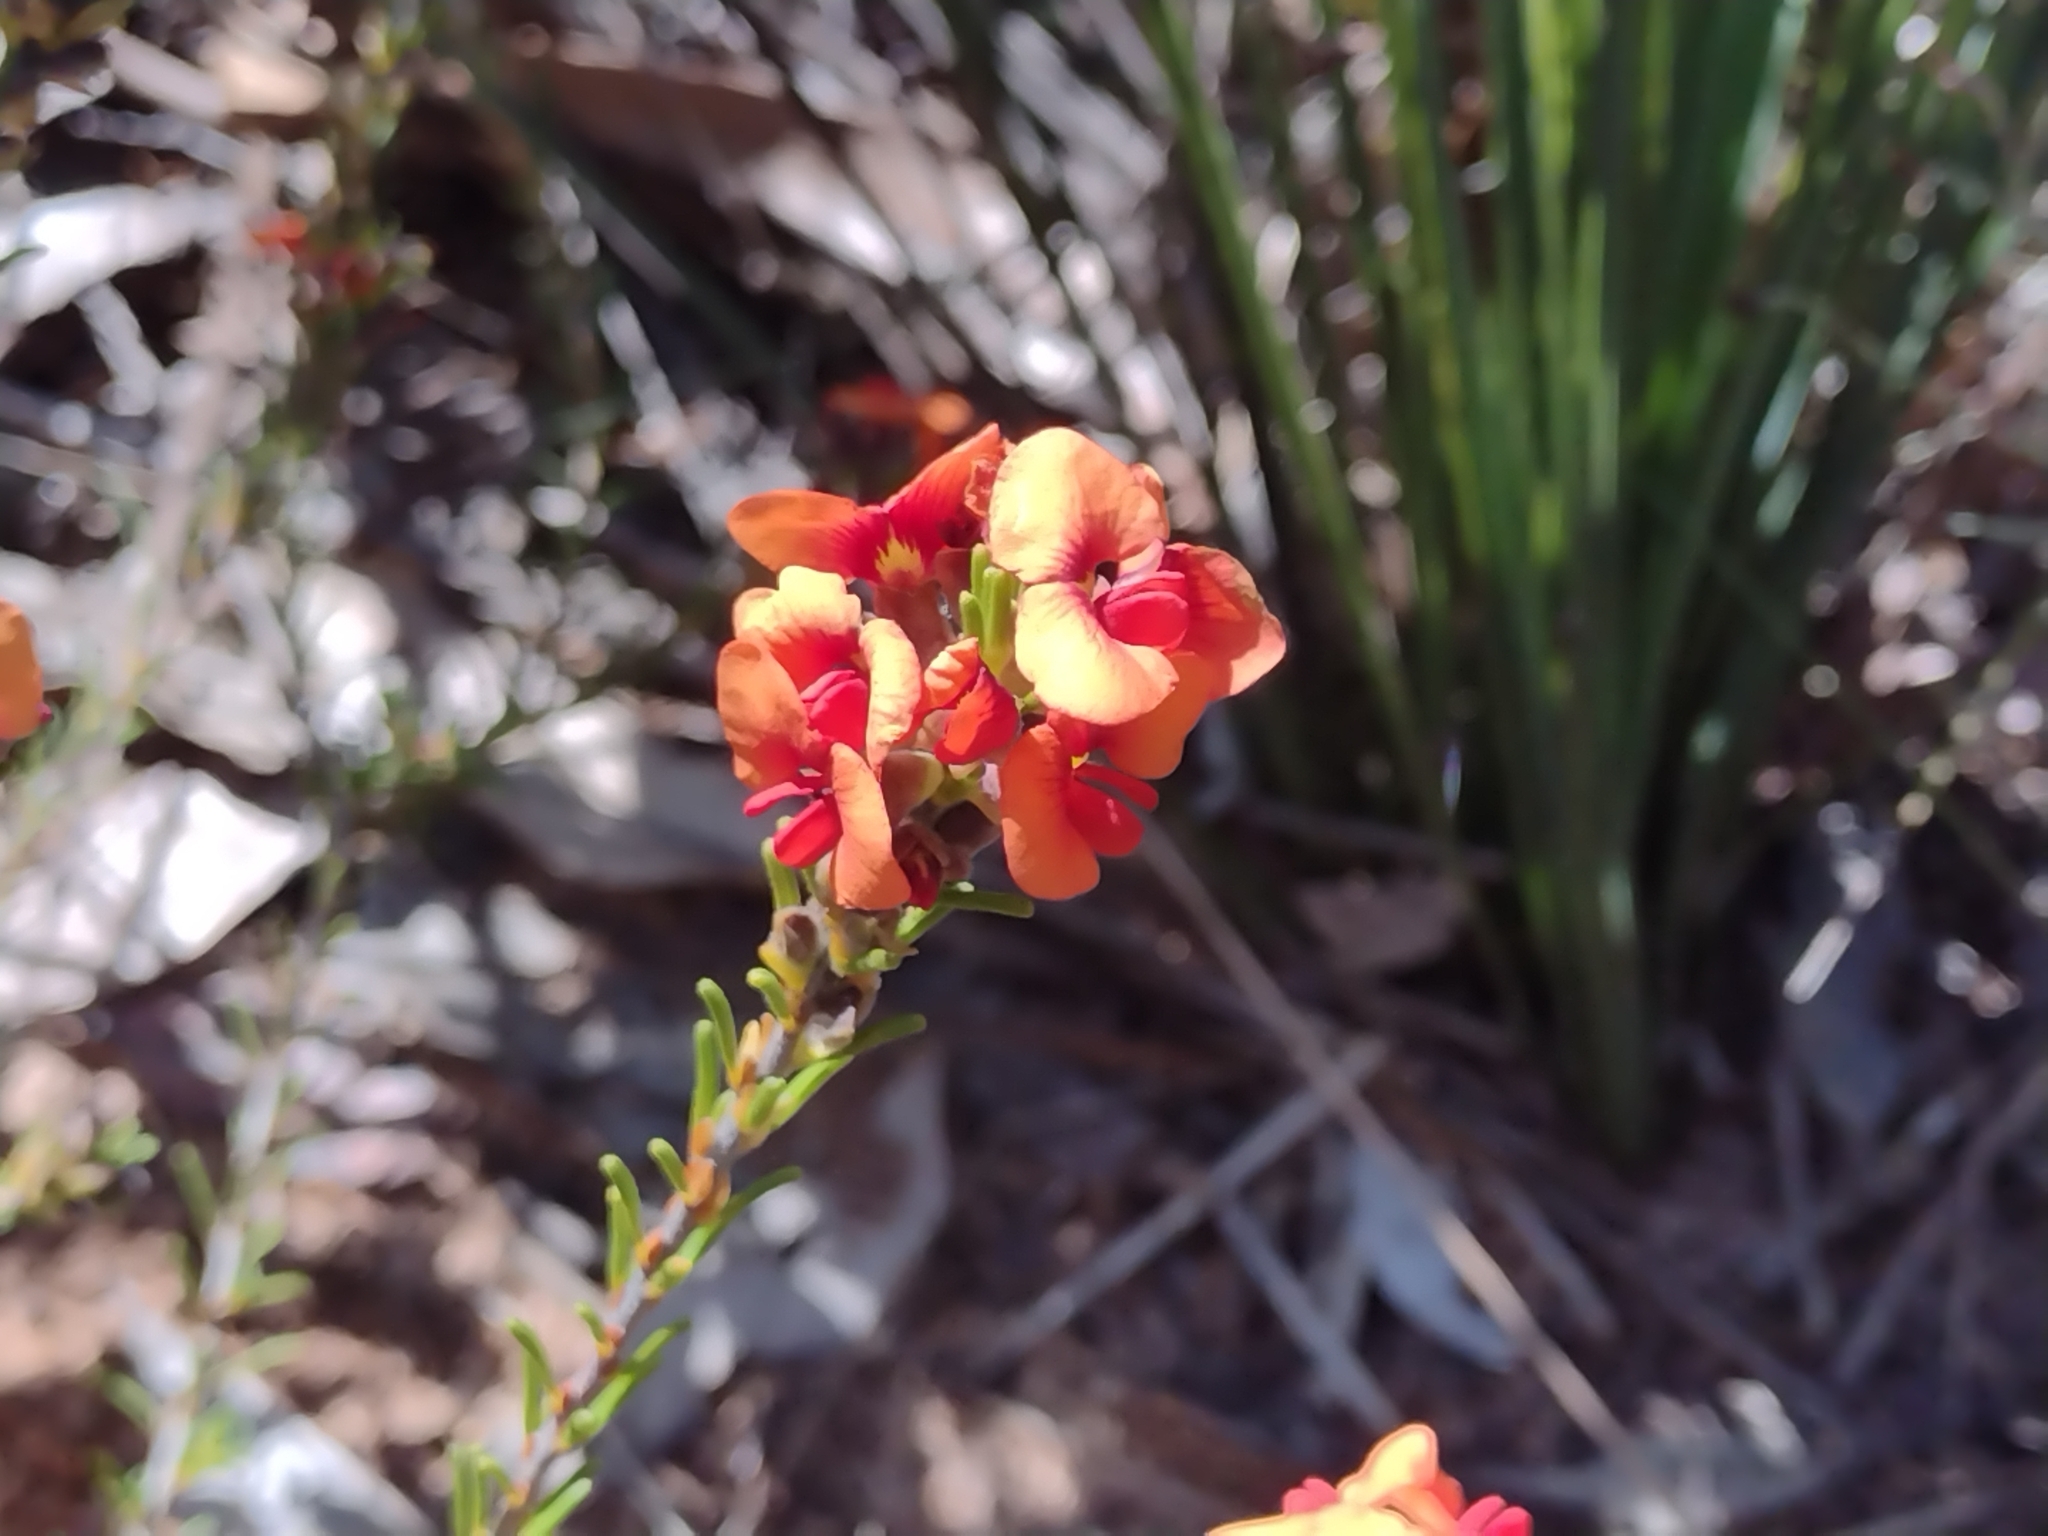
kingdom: Plantae
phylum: Tracheophyta
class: Magnoliopsida
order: Fabales
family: Fabaceae
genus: Dillwynia
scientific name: Dillwynia sericea
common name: Showy parrot-pea
